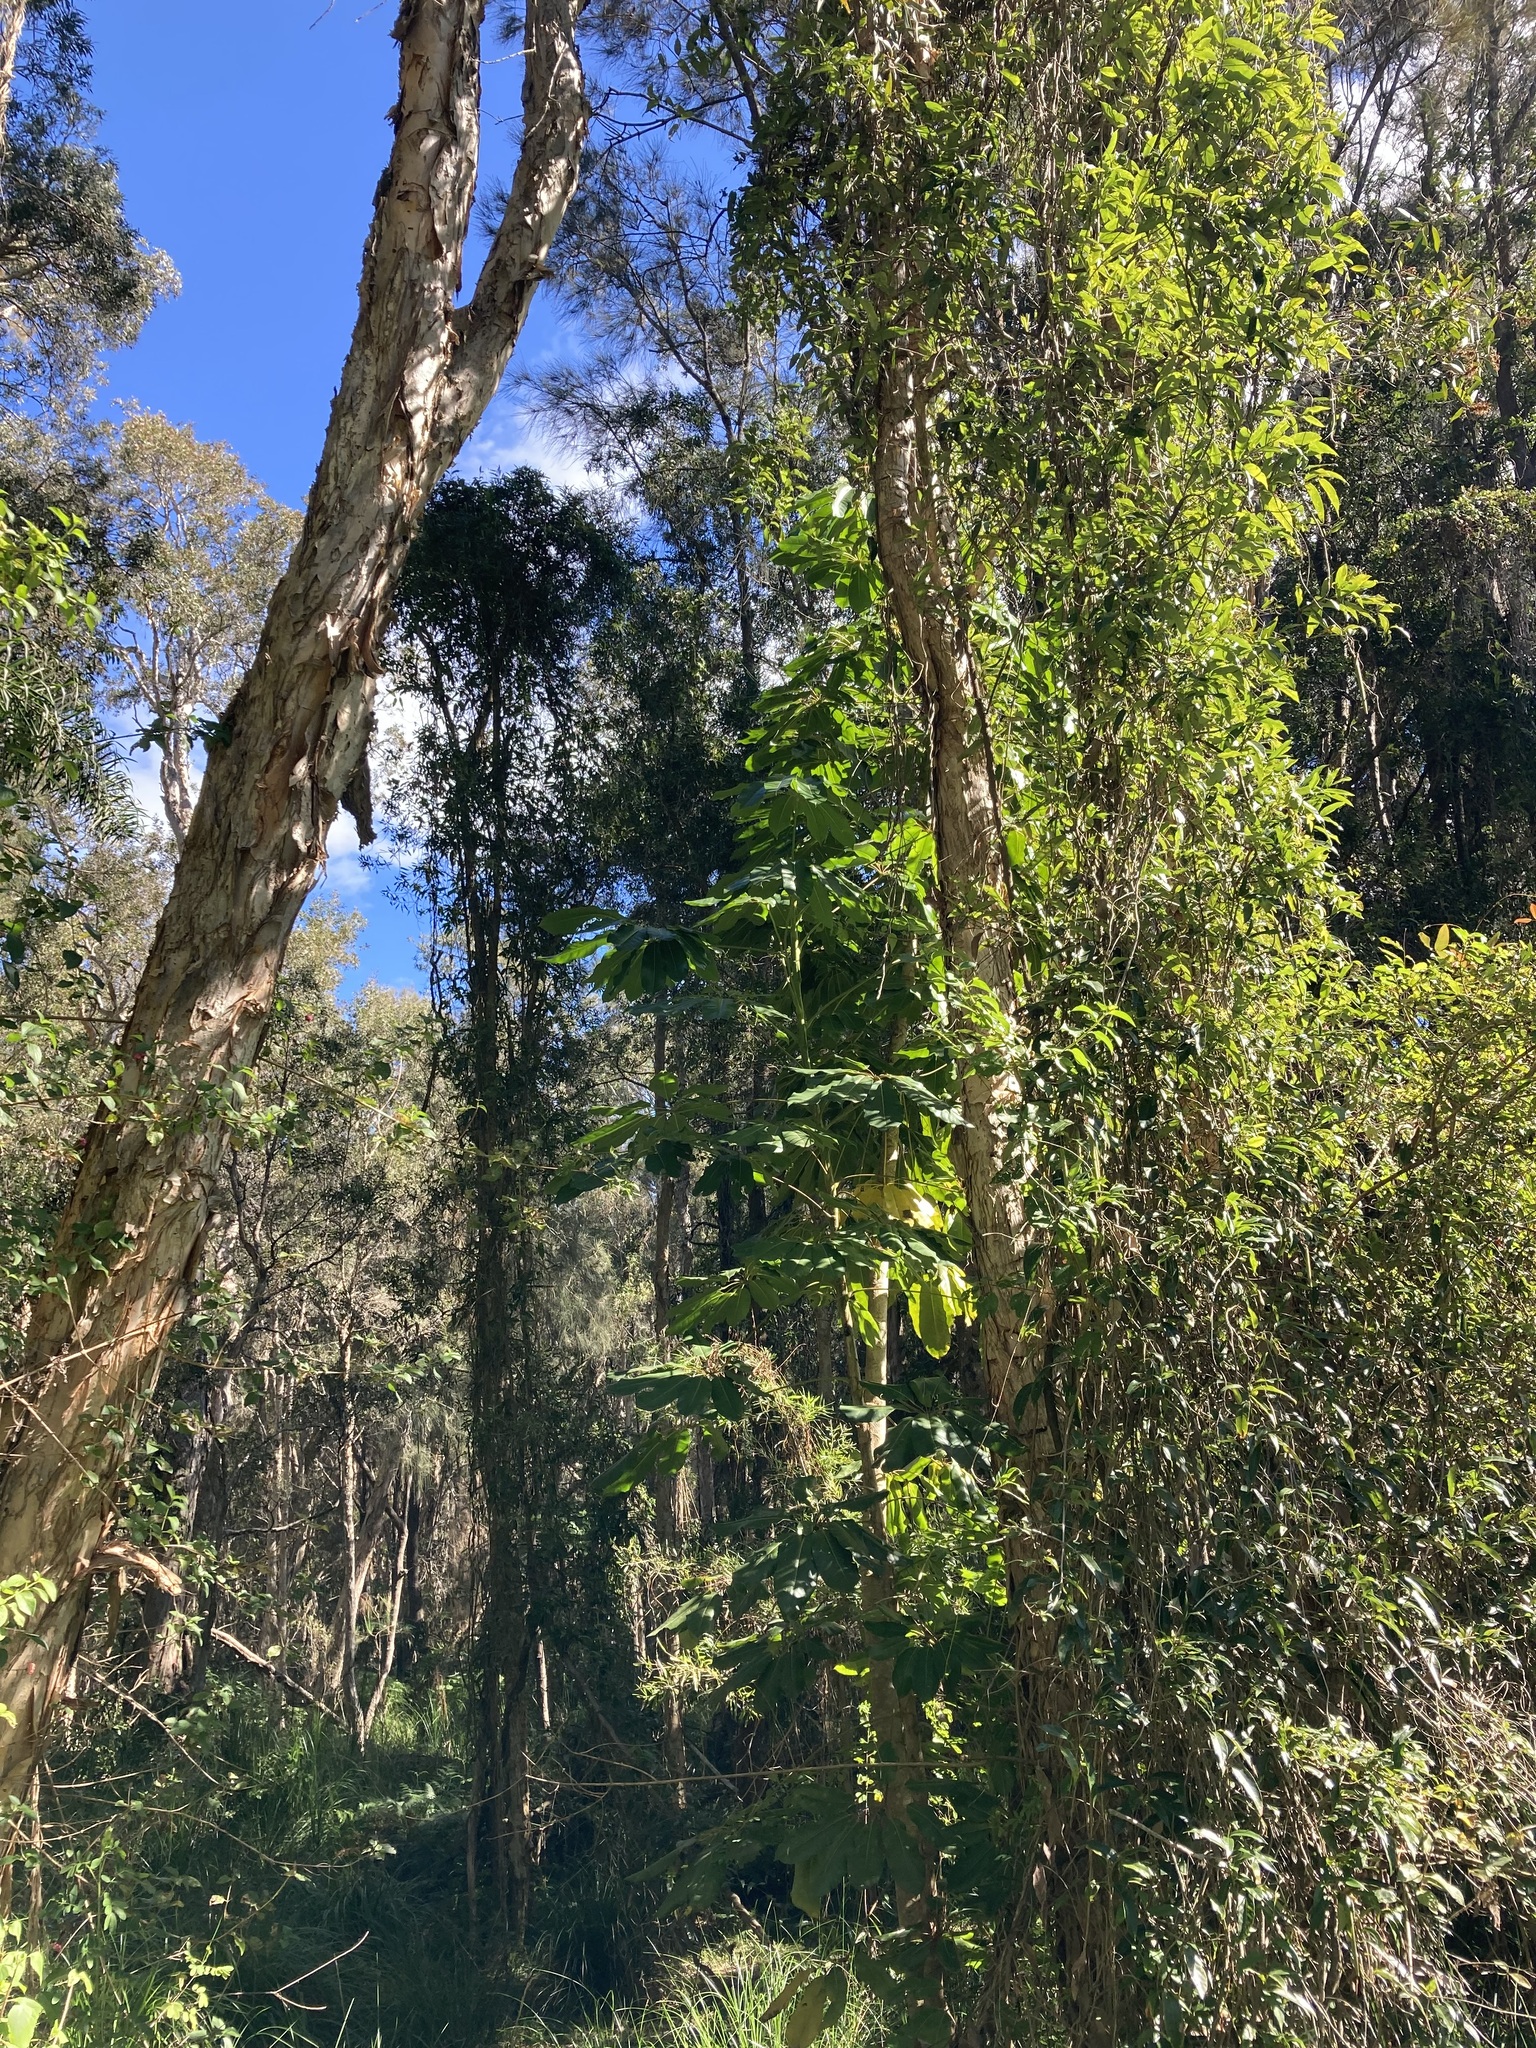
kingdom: Plantae
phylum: Tracheophyta
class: Magnoliopsida
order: Apiales
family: Araliaceae
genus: Heptapleurum
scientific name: Heptapleurum actinophyllum
